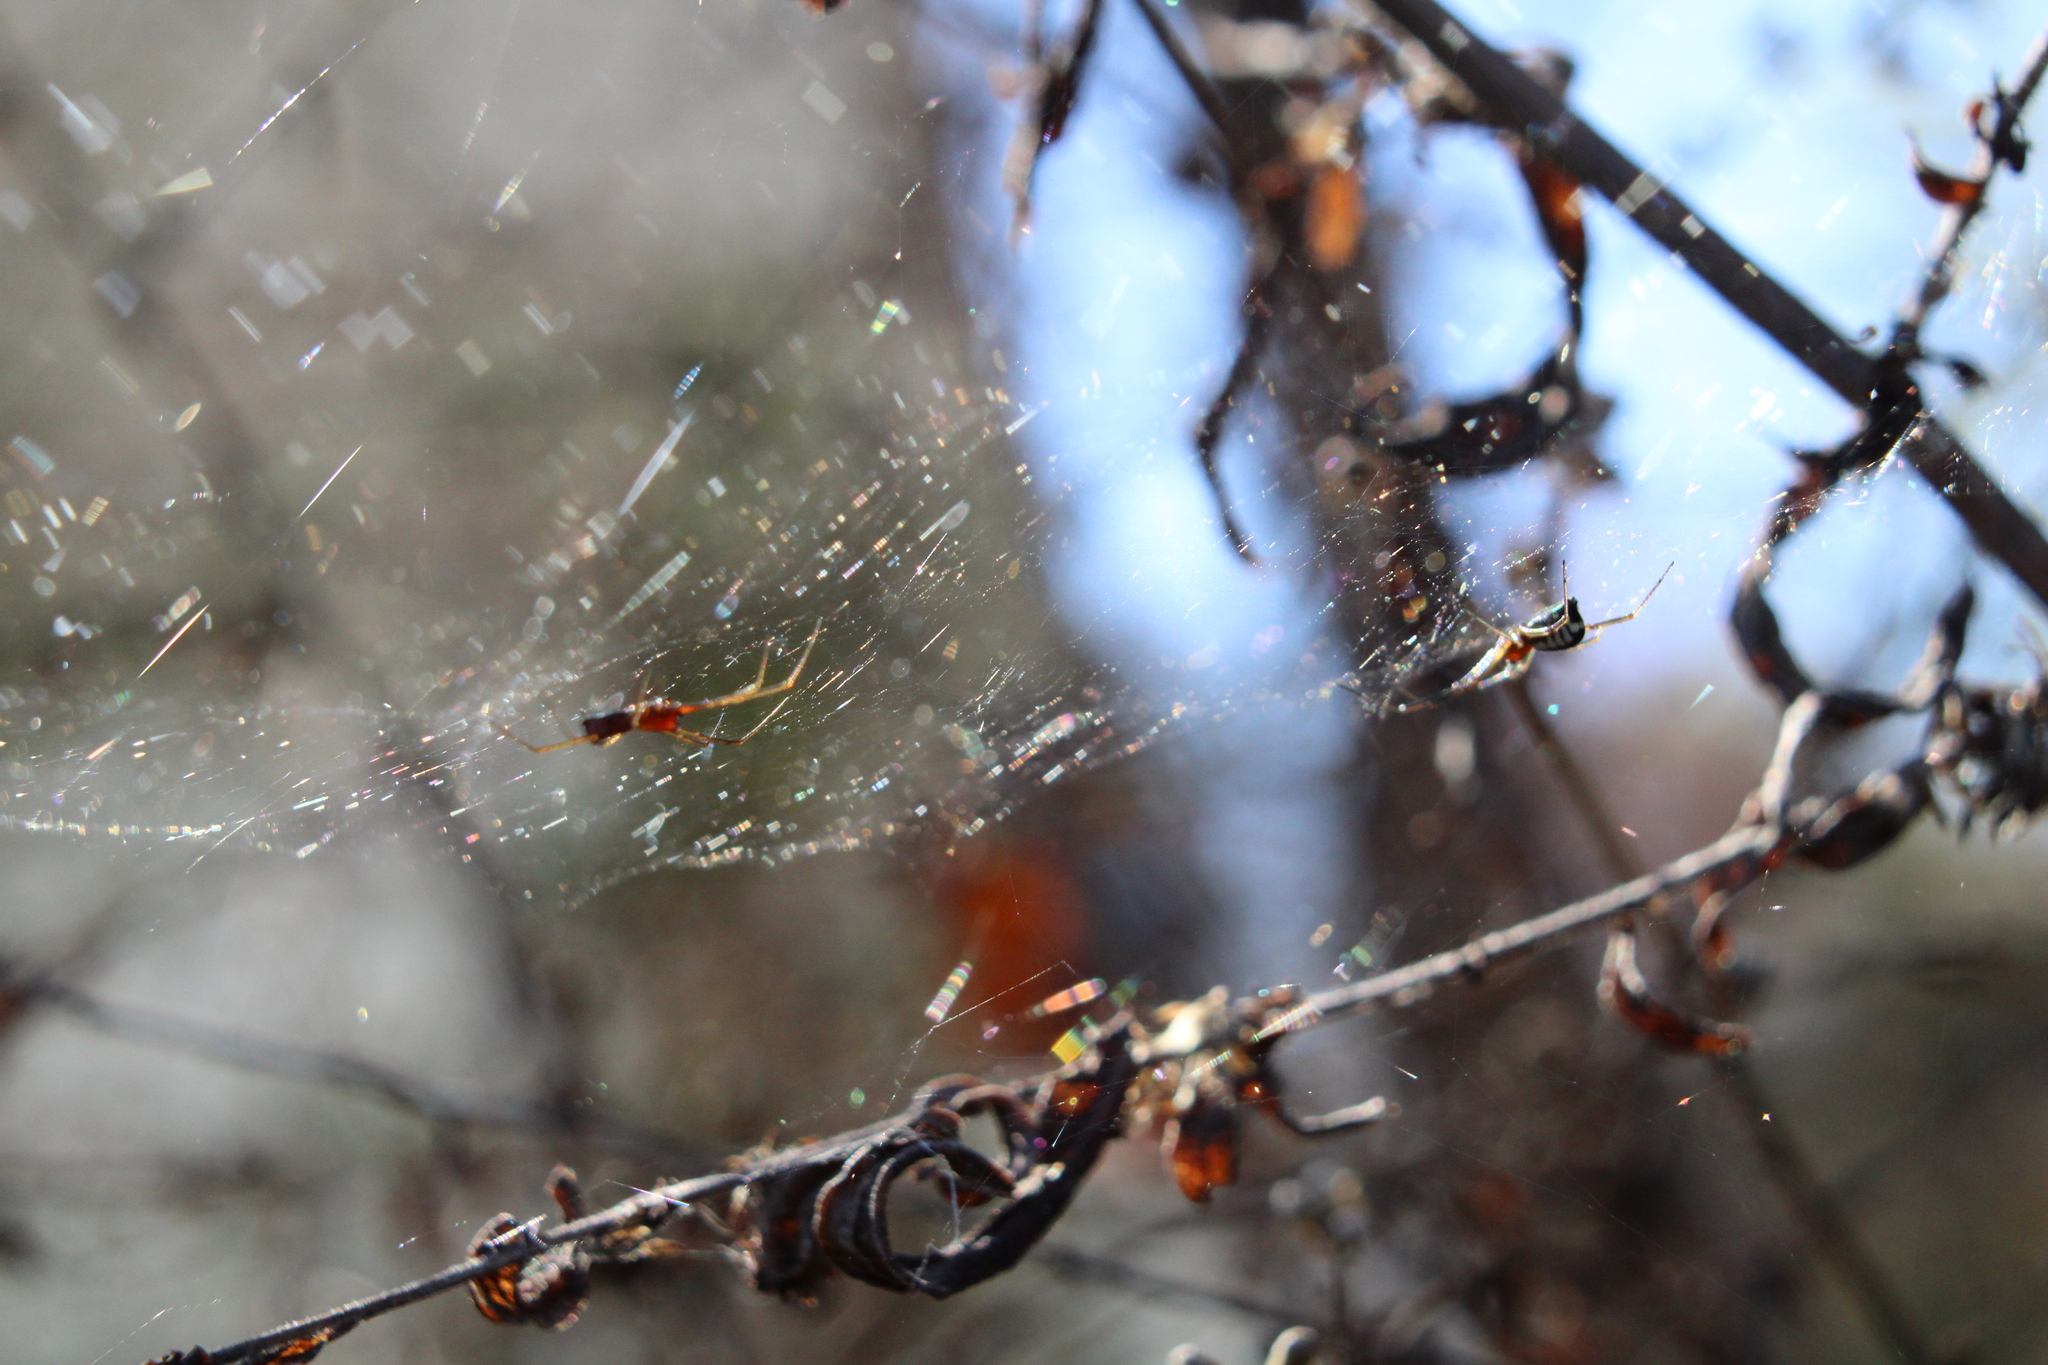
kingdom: Animalia
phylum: Arthropoda
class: Arachnida
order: Araneae
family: Linyphiidae
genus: Frontinella
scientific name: Frontinella pyramitela
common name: Bowl-and-doily spider
